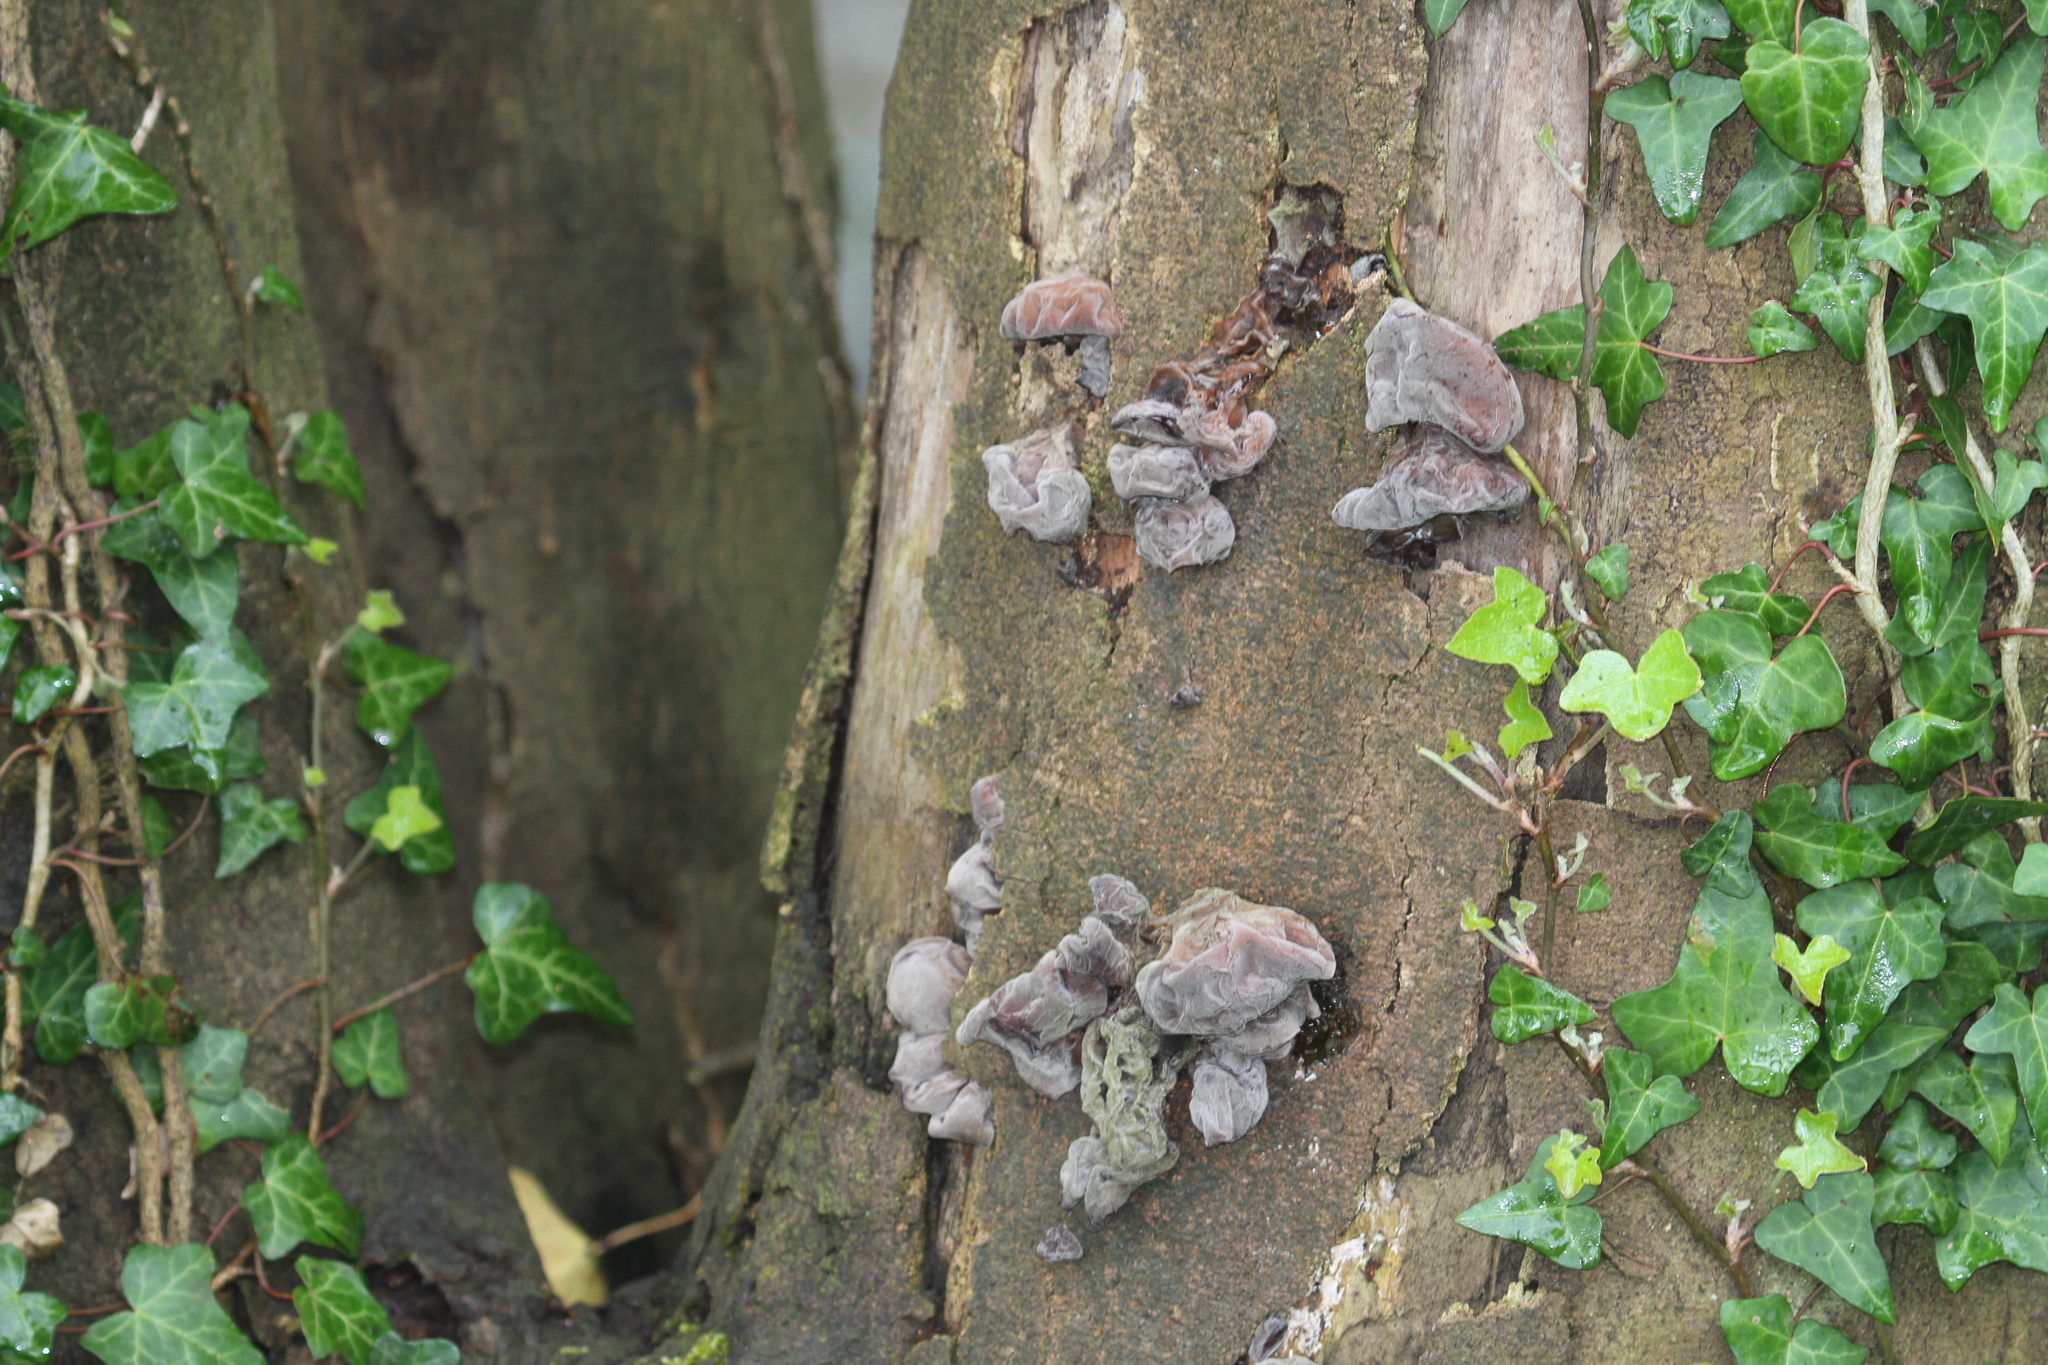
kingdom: Fungi
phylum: Basidiomycota
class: Agaricomycetes
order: Auriculariales
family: Auriculariaceae
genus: Auricularia
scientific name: Auricularia auricula-judae
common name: Jelly ear
